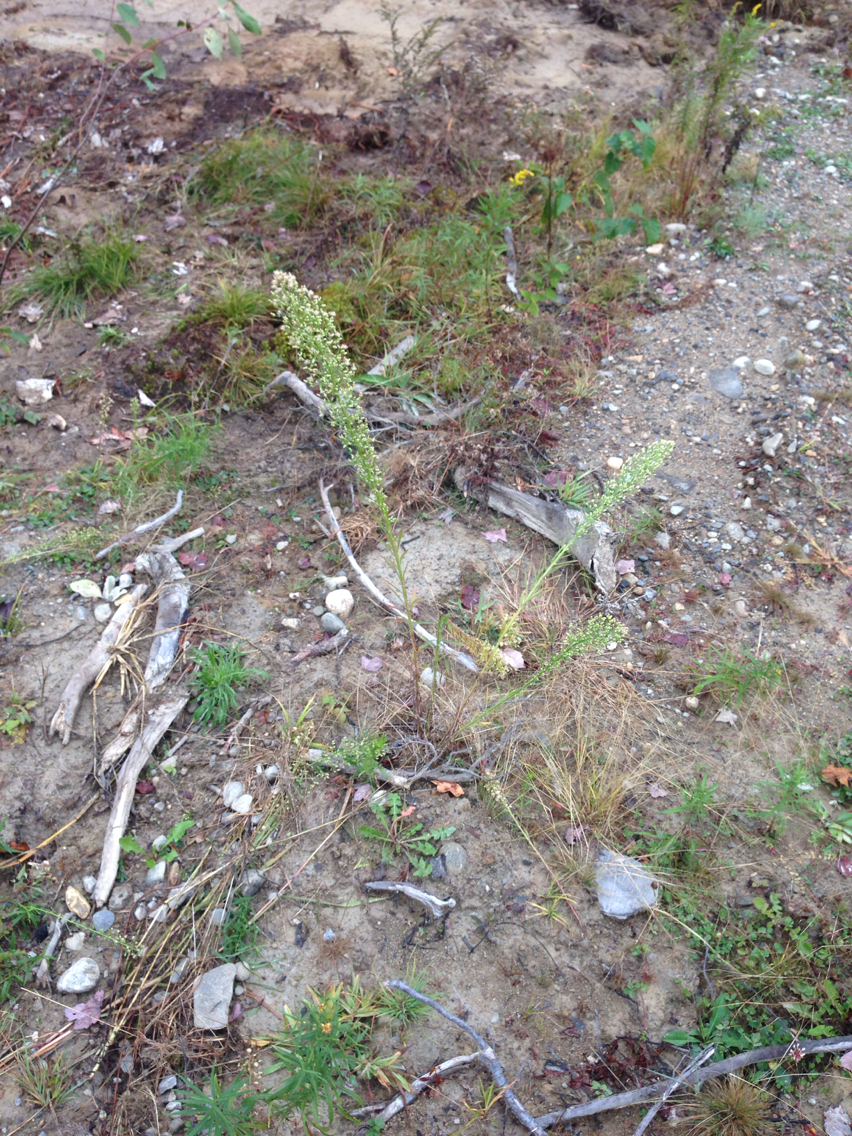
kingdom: Plantae
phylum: Tracheophyta
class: Magnoliopsida
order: Asterales
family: Asteraceae
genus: Erigeron
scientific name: Erigeron canadensis
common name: Canadian fleabane
